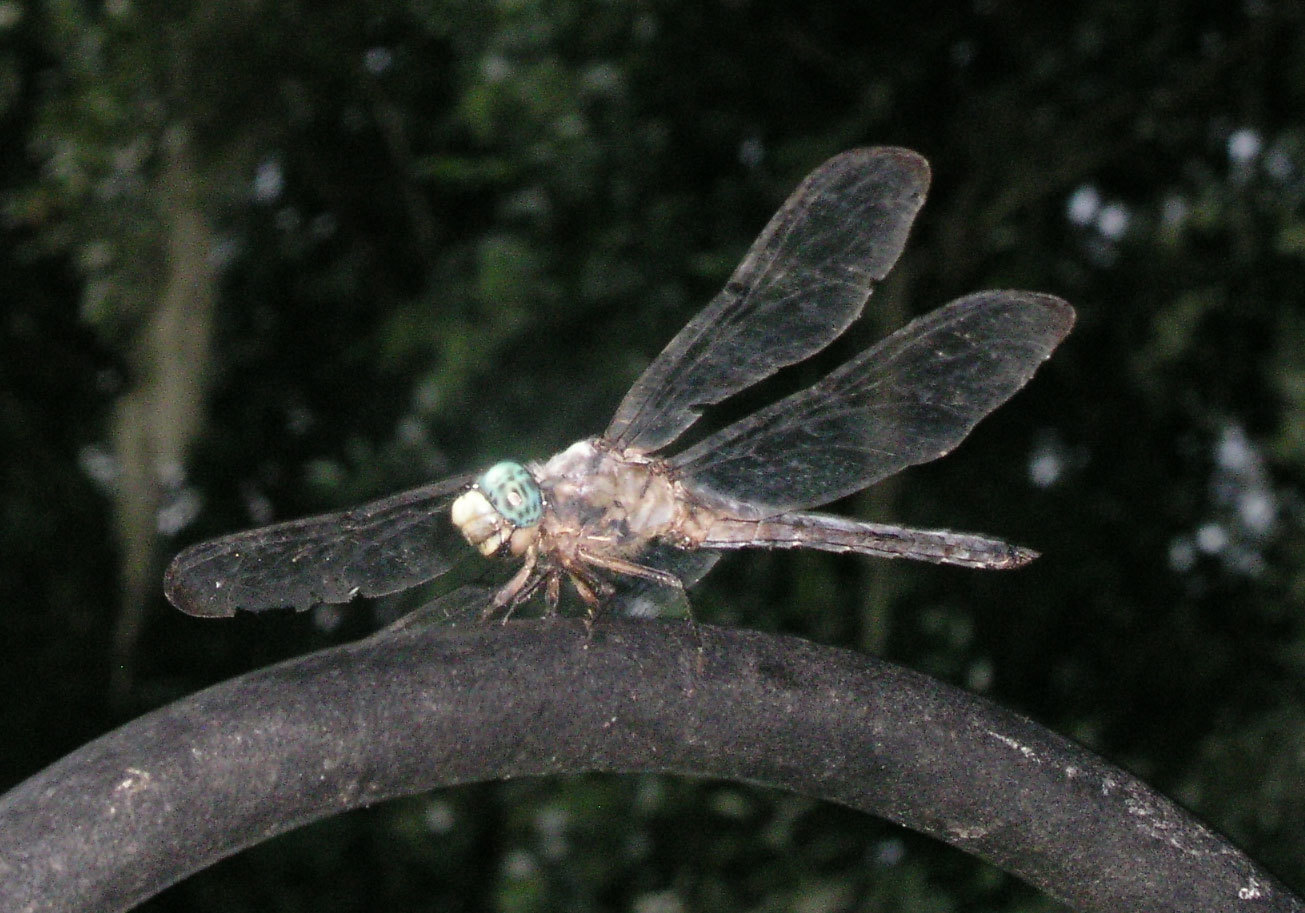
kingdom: Animalia
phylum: Arthropoda
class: Insecta
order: Odonata
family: Libellulidae
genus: Libellula
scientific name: Libellula vibrans
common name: Great blue skimmer
